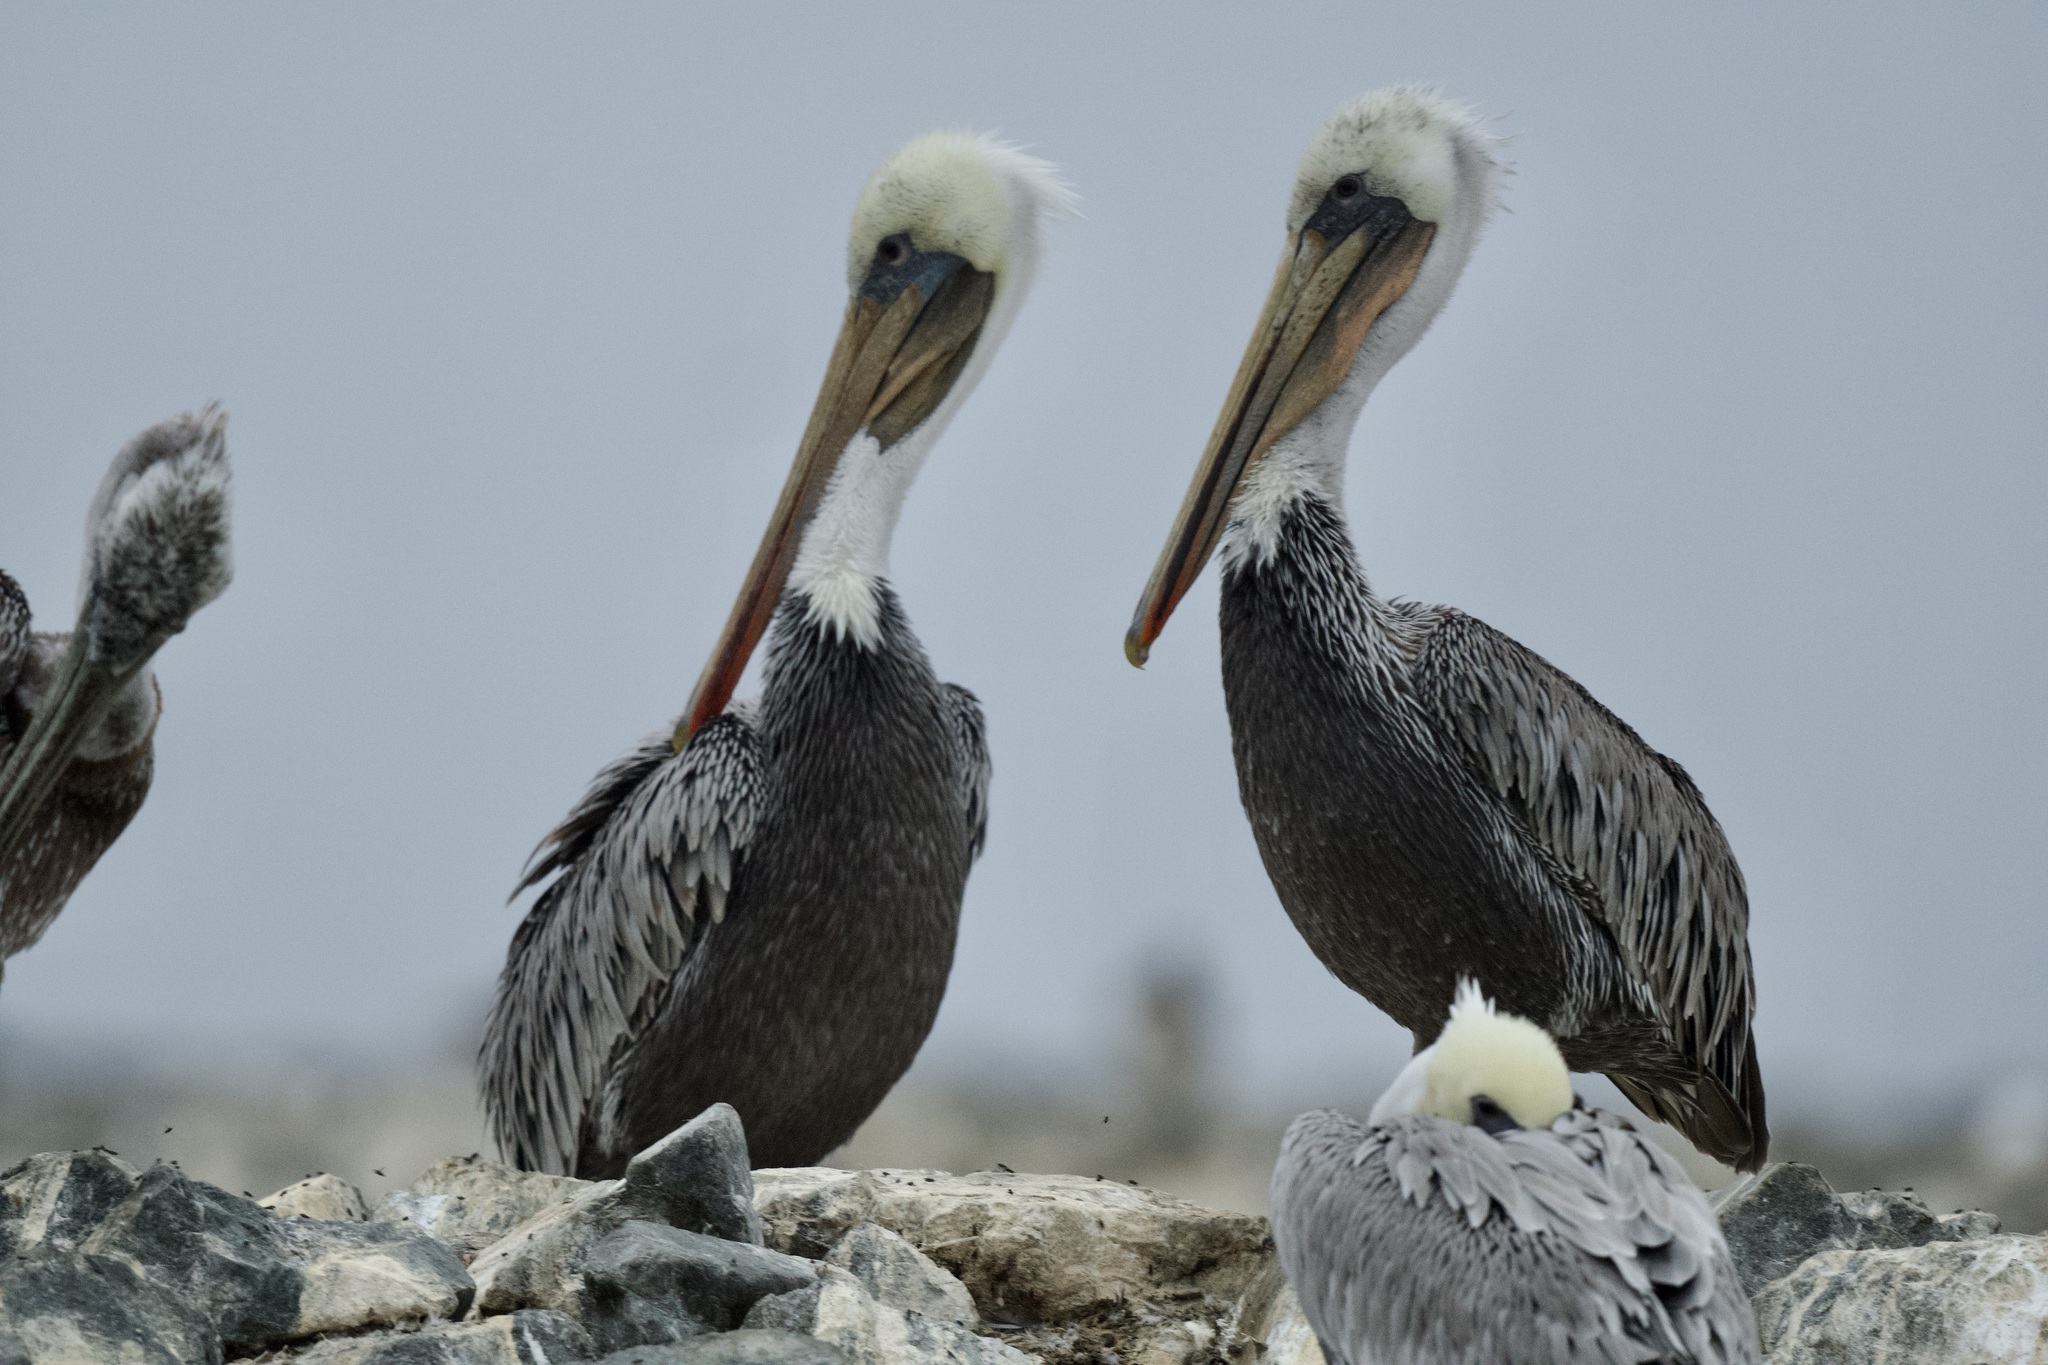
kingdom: Animalia
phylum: Chordata
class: Aves
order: Pelecaniformes
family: Pelecanidae
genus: Pelecanus
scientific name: Pelecanus occidentalis
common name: Brown pelican
